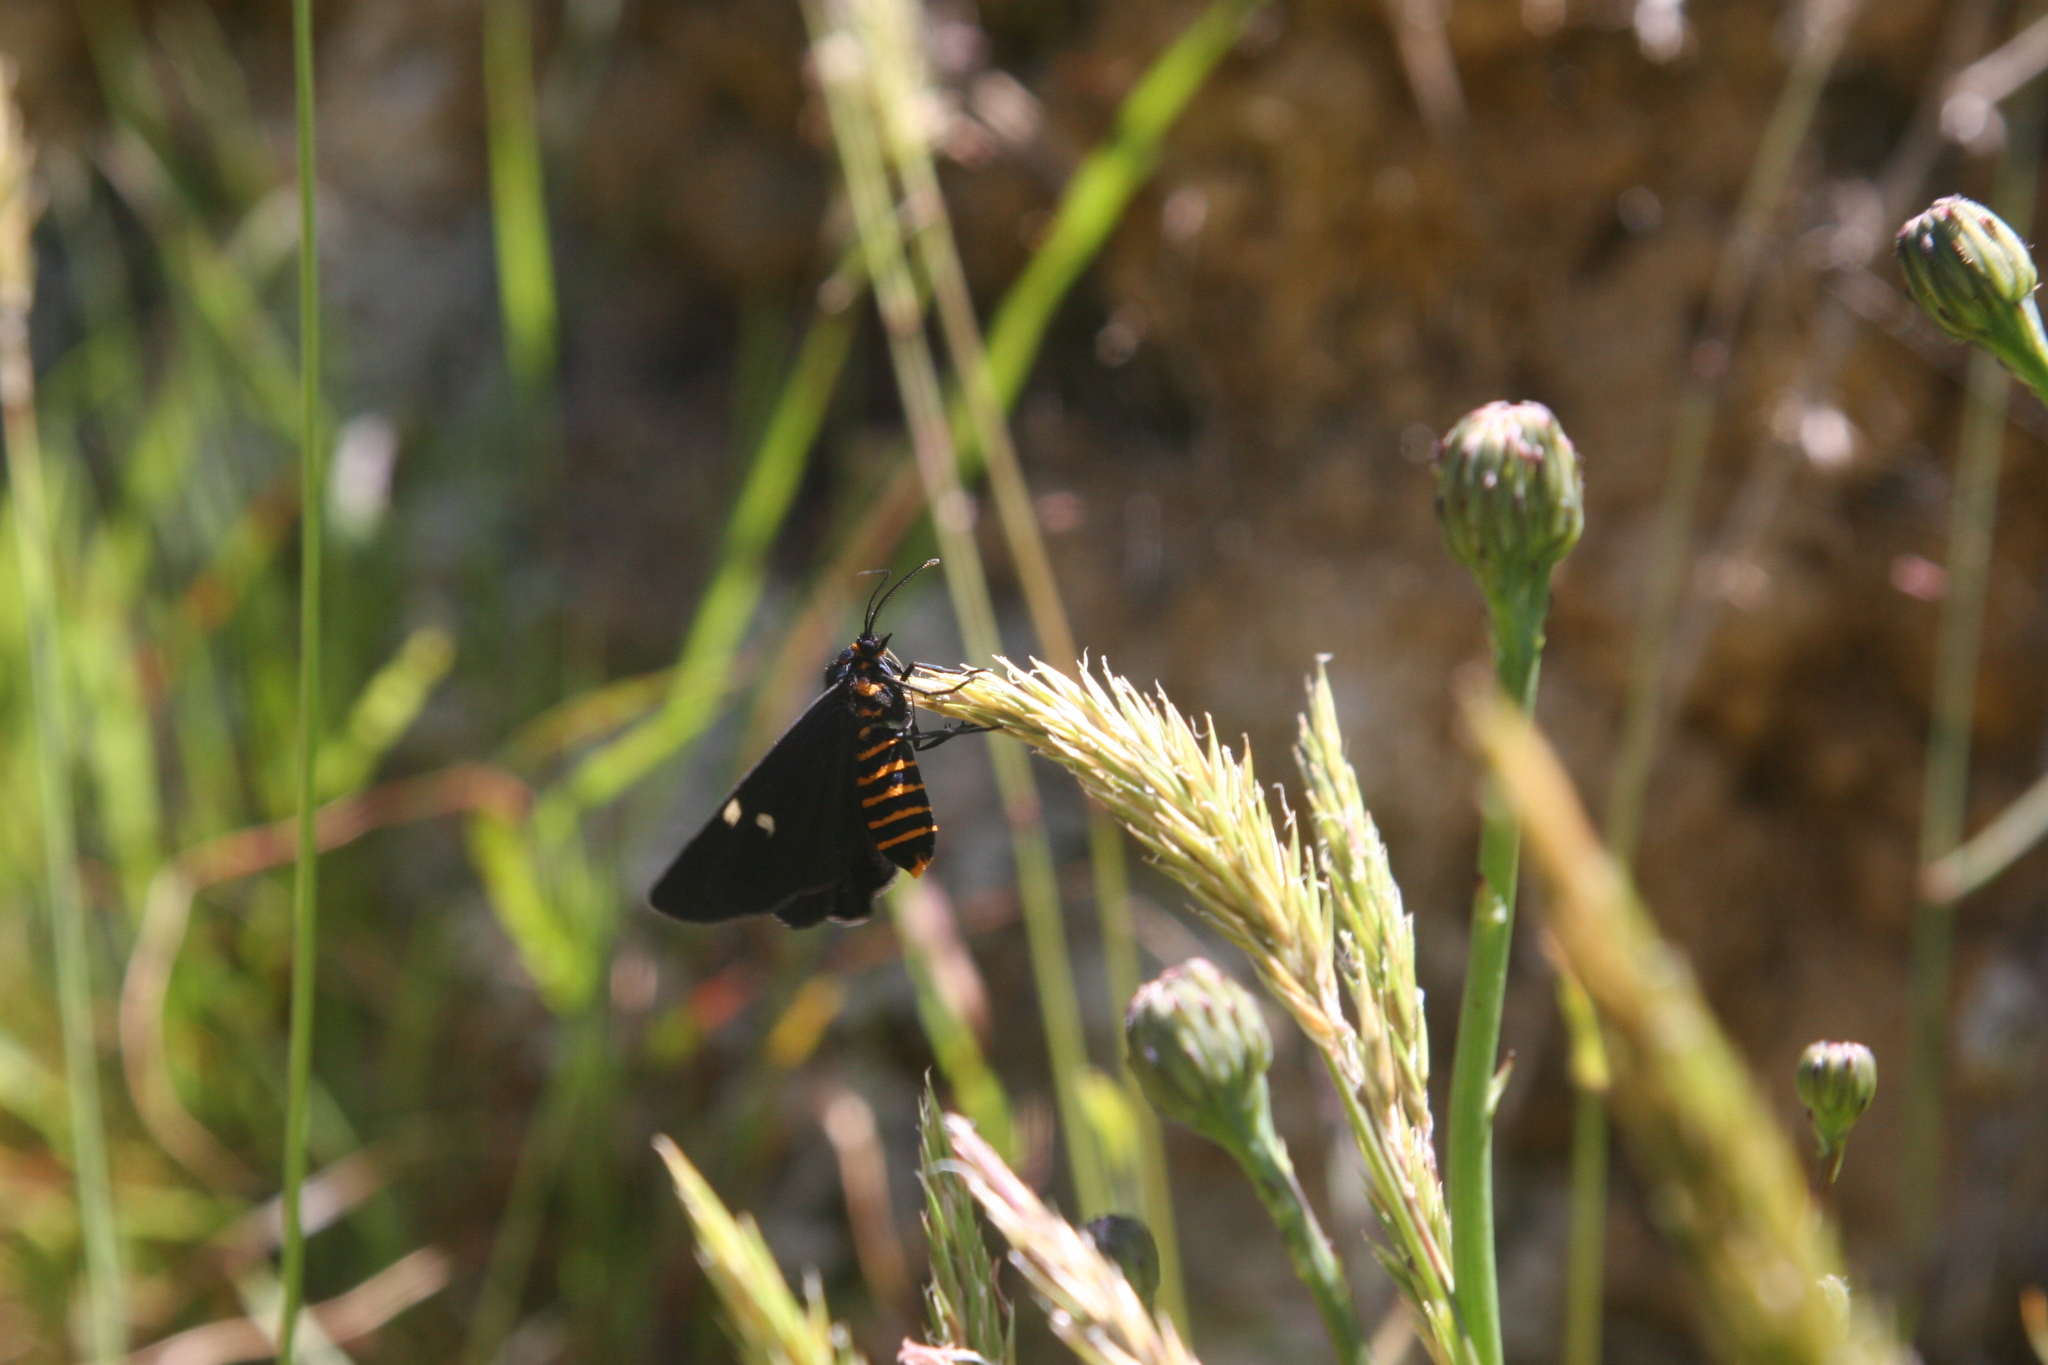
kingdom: Animalia
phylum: Arthropoda
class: Insecta
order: Lepidoptera
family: Erebidae
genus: Nyctemera
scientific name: Nyctemera annulatum
